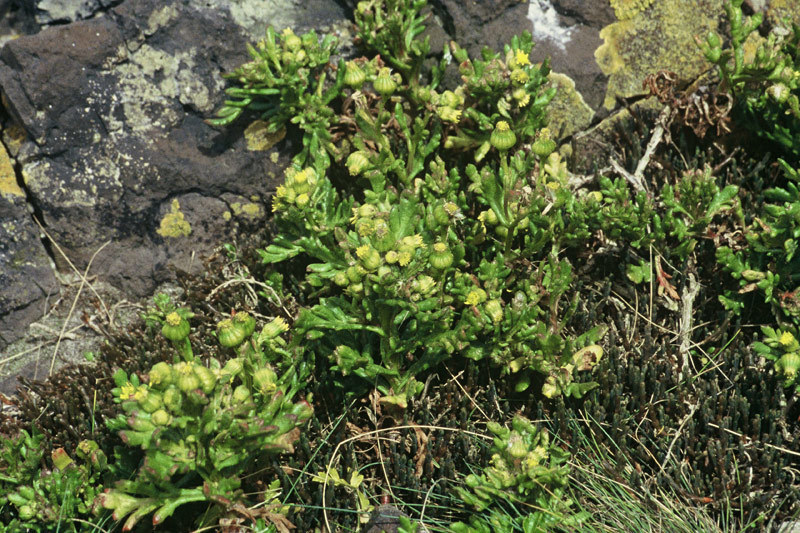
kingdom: Plantae
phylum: Tracheophyta
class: Magnoliopsida
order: Asterales
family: Asteraceae
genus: Senecio
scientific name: Senecio carnosulus
